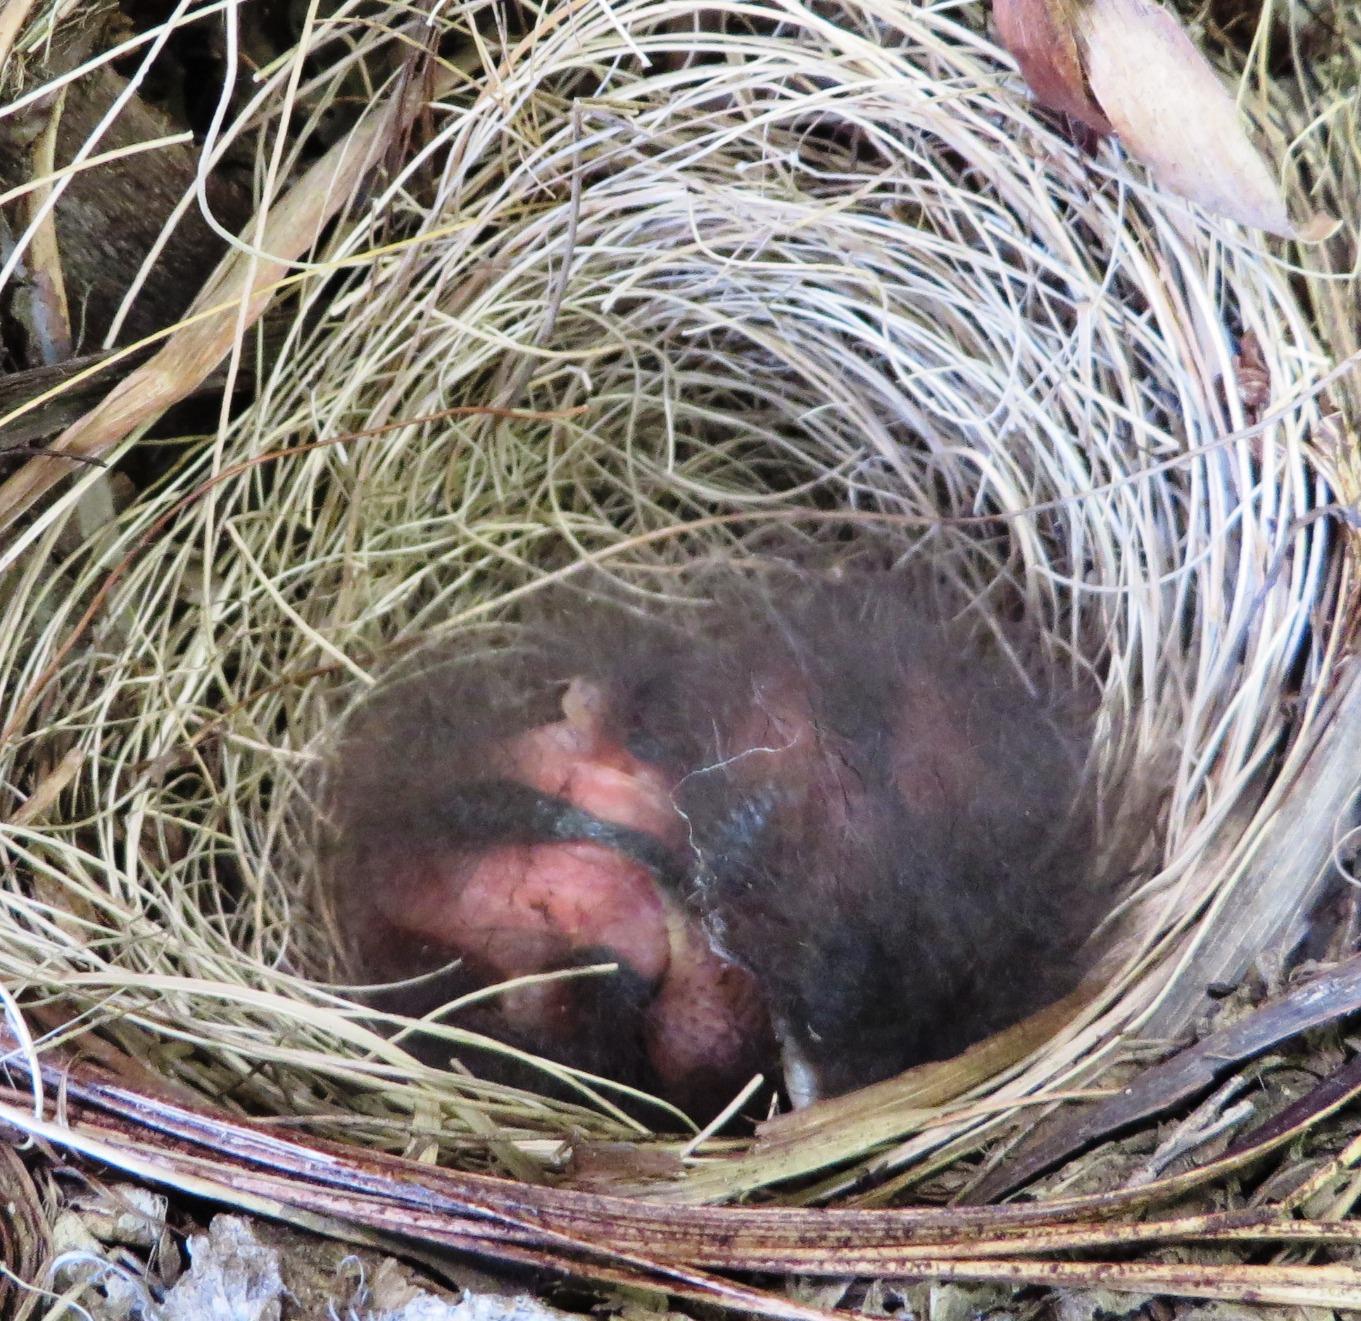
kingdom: Animalia
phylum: Chordata
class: Aves
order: Passeriformes
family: Motacillidae
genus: Motacilla
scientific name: Motacilla capensis
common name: Cape wagtail
